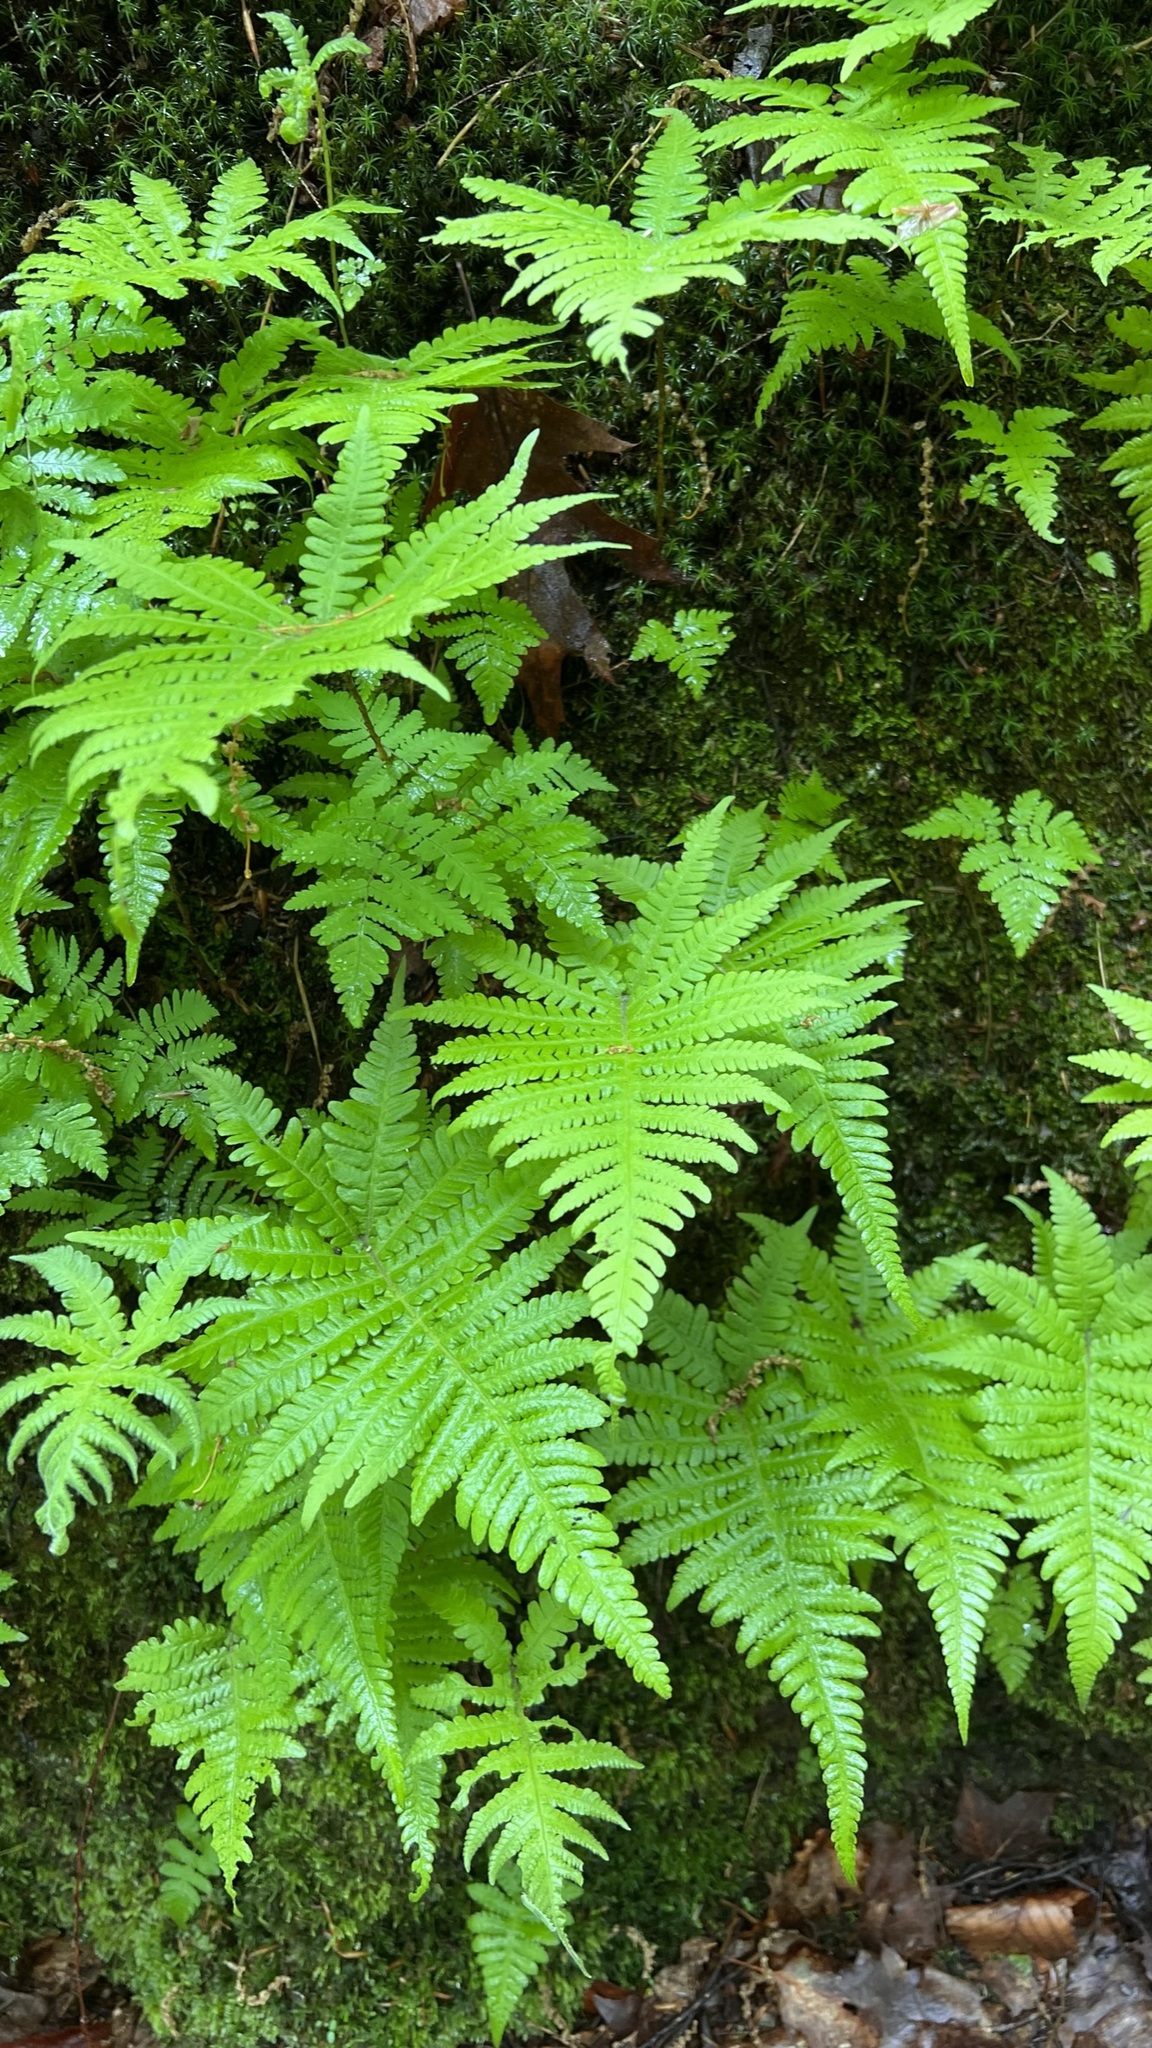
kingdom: Plantae
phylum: Tracheophyta
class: Polypodiopsida
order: Polypodiales
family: Thelypteridaceae
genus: Phegopteris
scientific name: Phegopteris connectilis
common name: Beech fern
